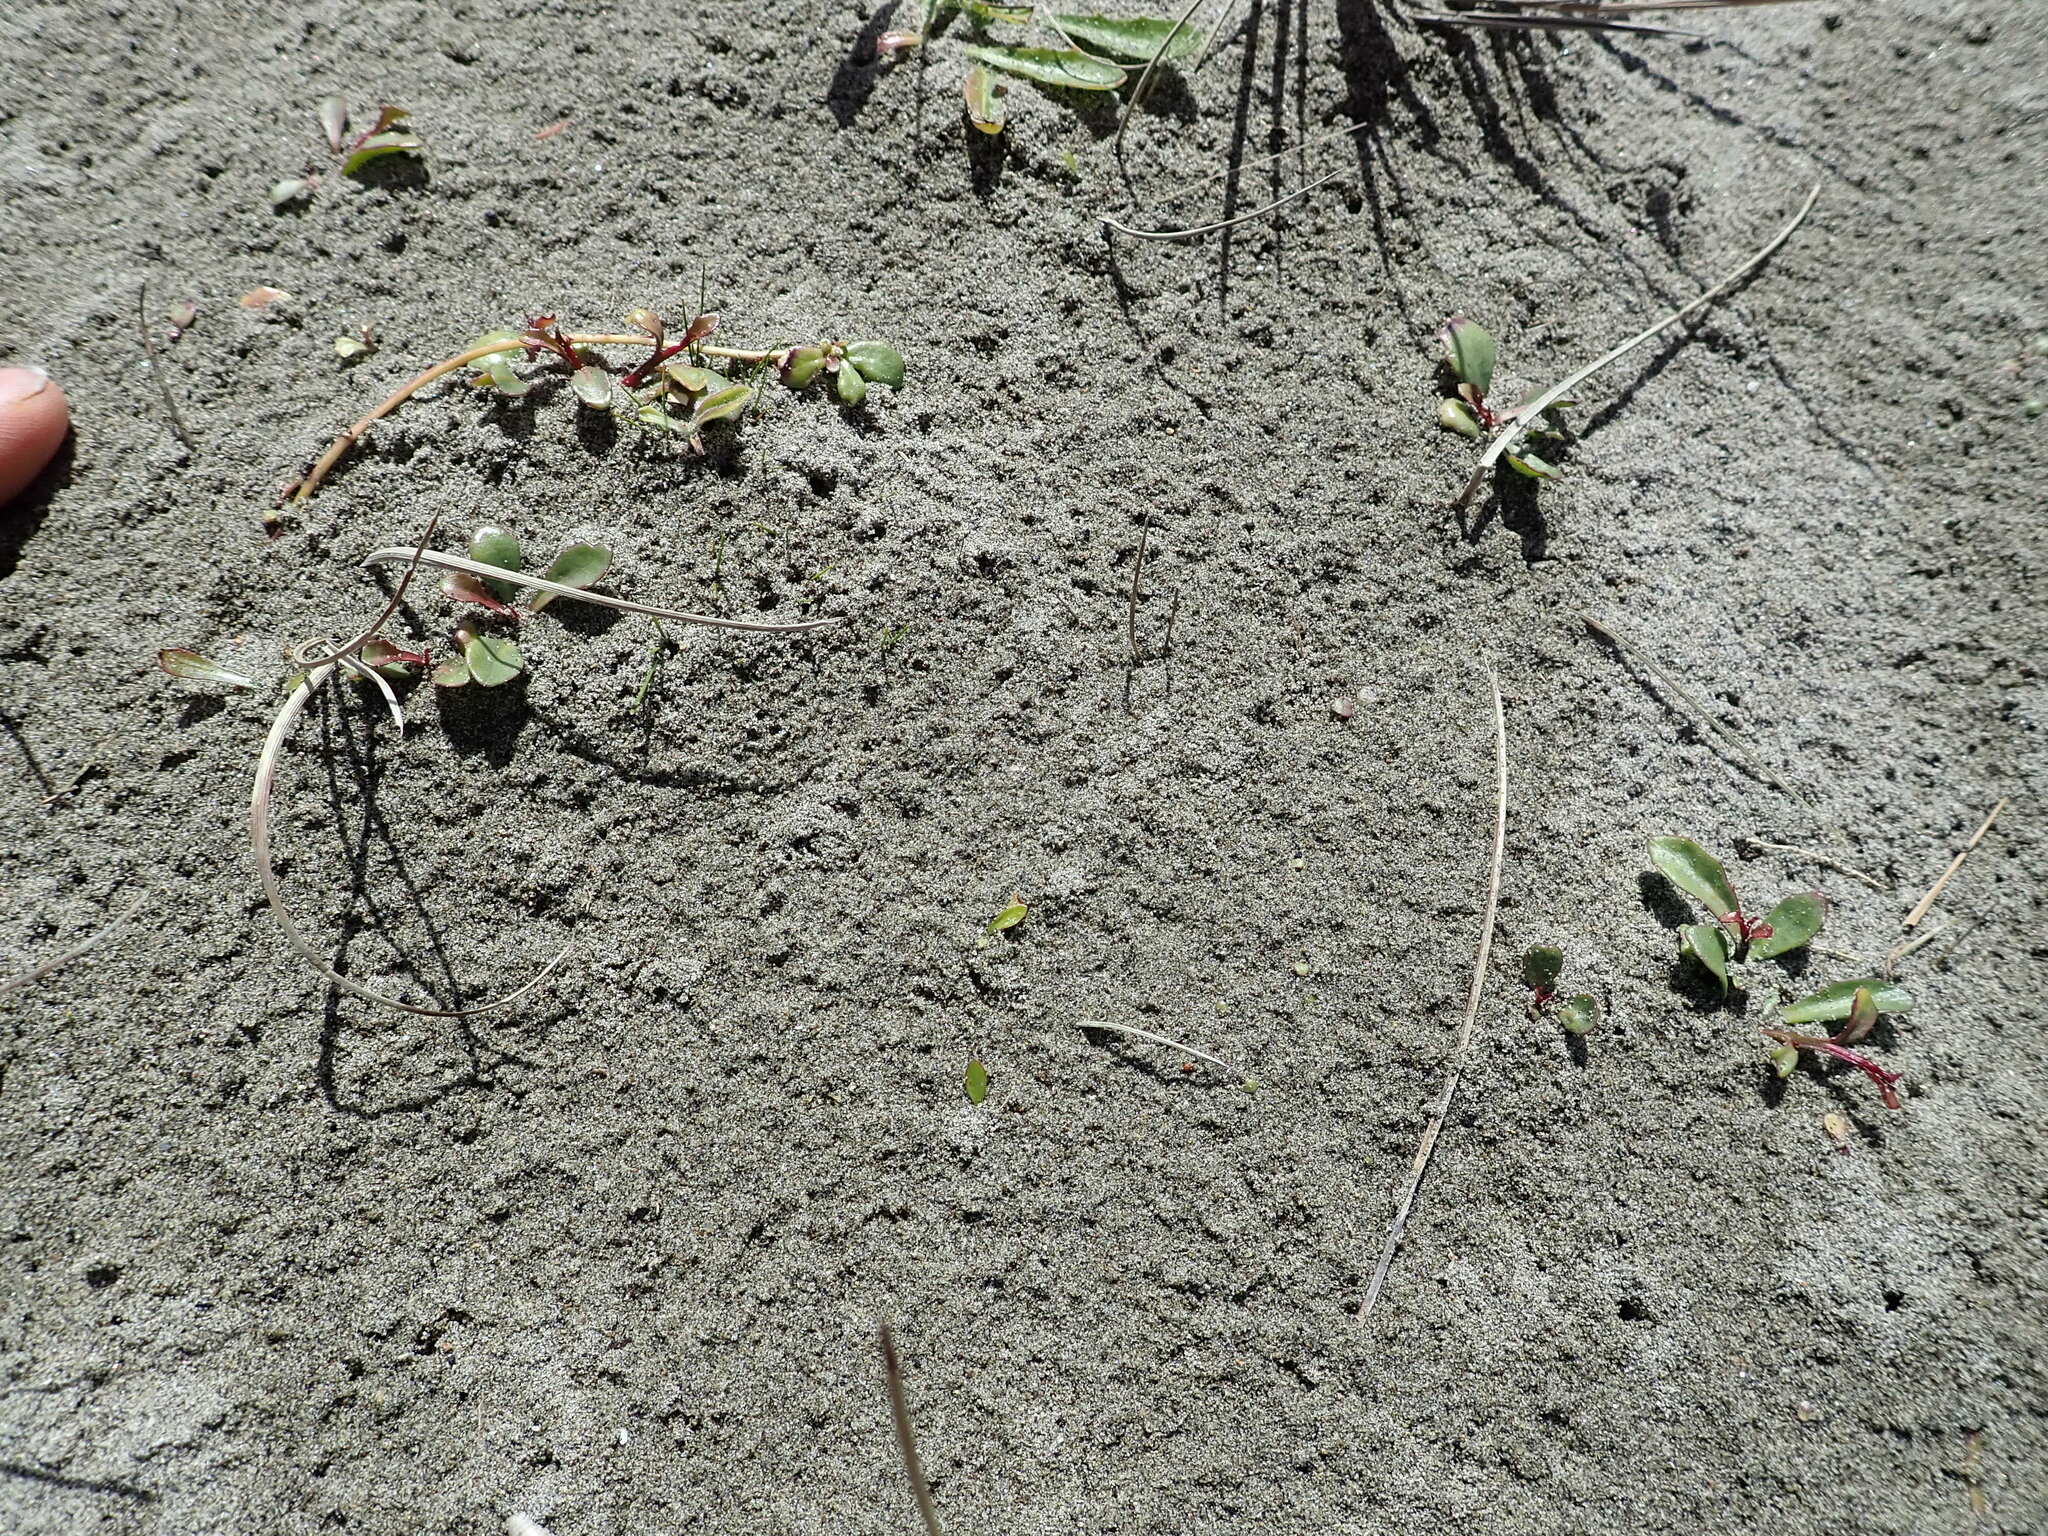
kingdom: Plantae
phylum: Tracheophyta
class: Magnoliopsida
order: Asterales
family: Campanulaceae
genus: Lobelia
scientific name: Lobelia anceps
